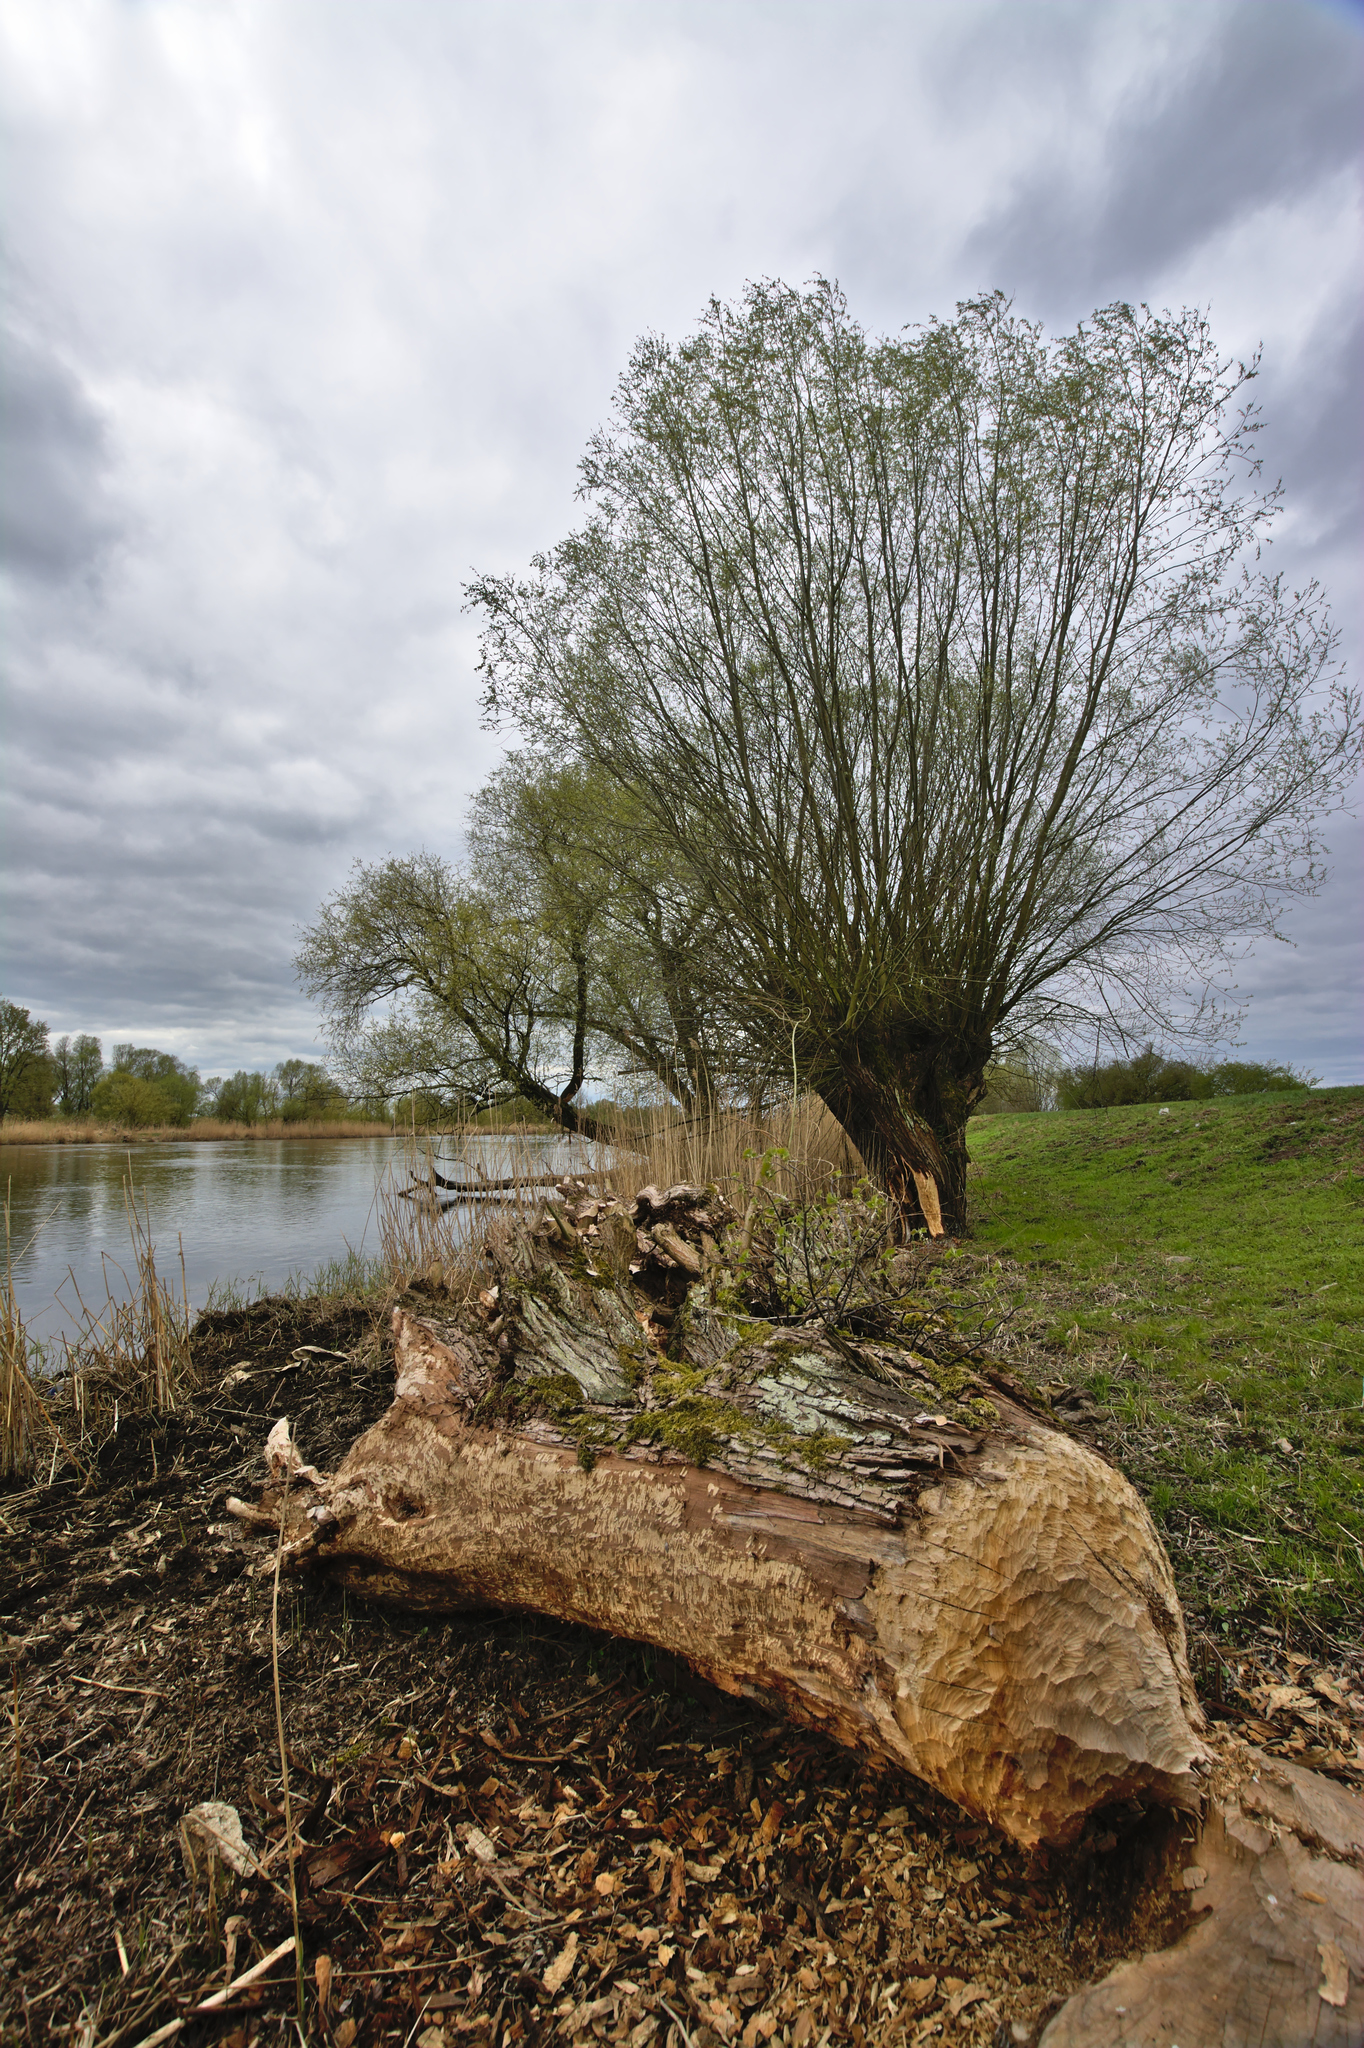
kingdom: Animalia
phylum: Chordata
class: Mammalia
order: Rodentia
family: Castoridae
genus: Castor
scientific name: Castor fiber
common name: Eurasian beaver
